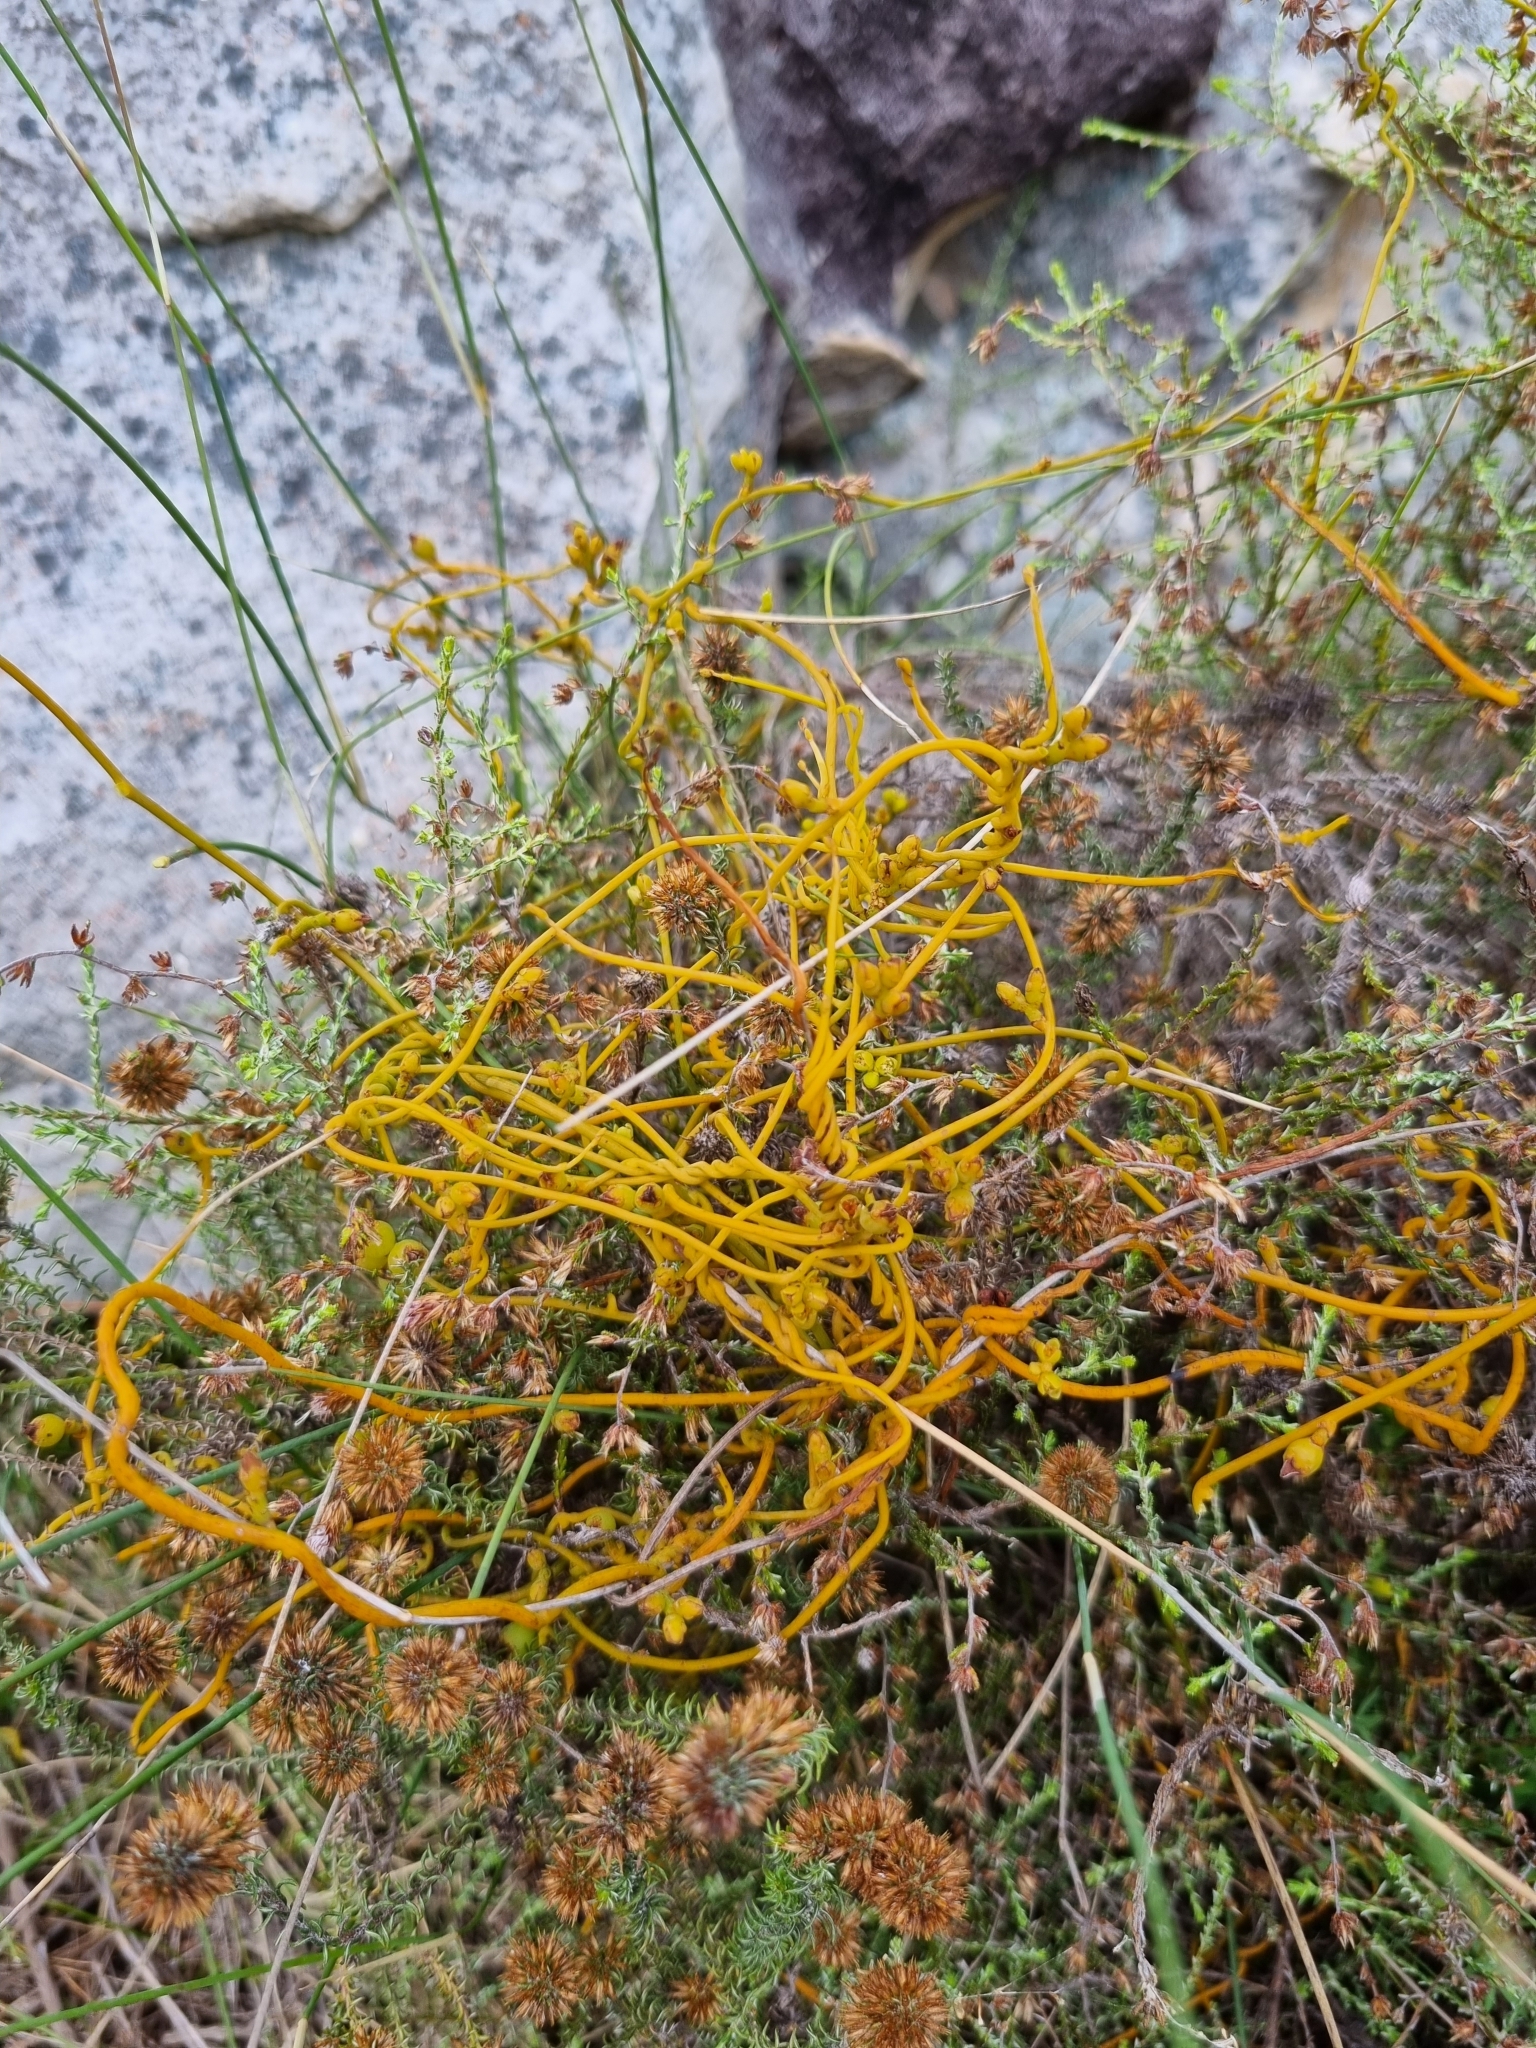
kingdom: Plantae
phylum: Tracheophyta
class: Magnoliopsida
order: Laurales
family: Lauraceae
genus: Cassytha
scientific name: Cassytha ciliolata
